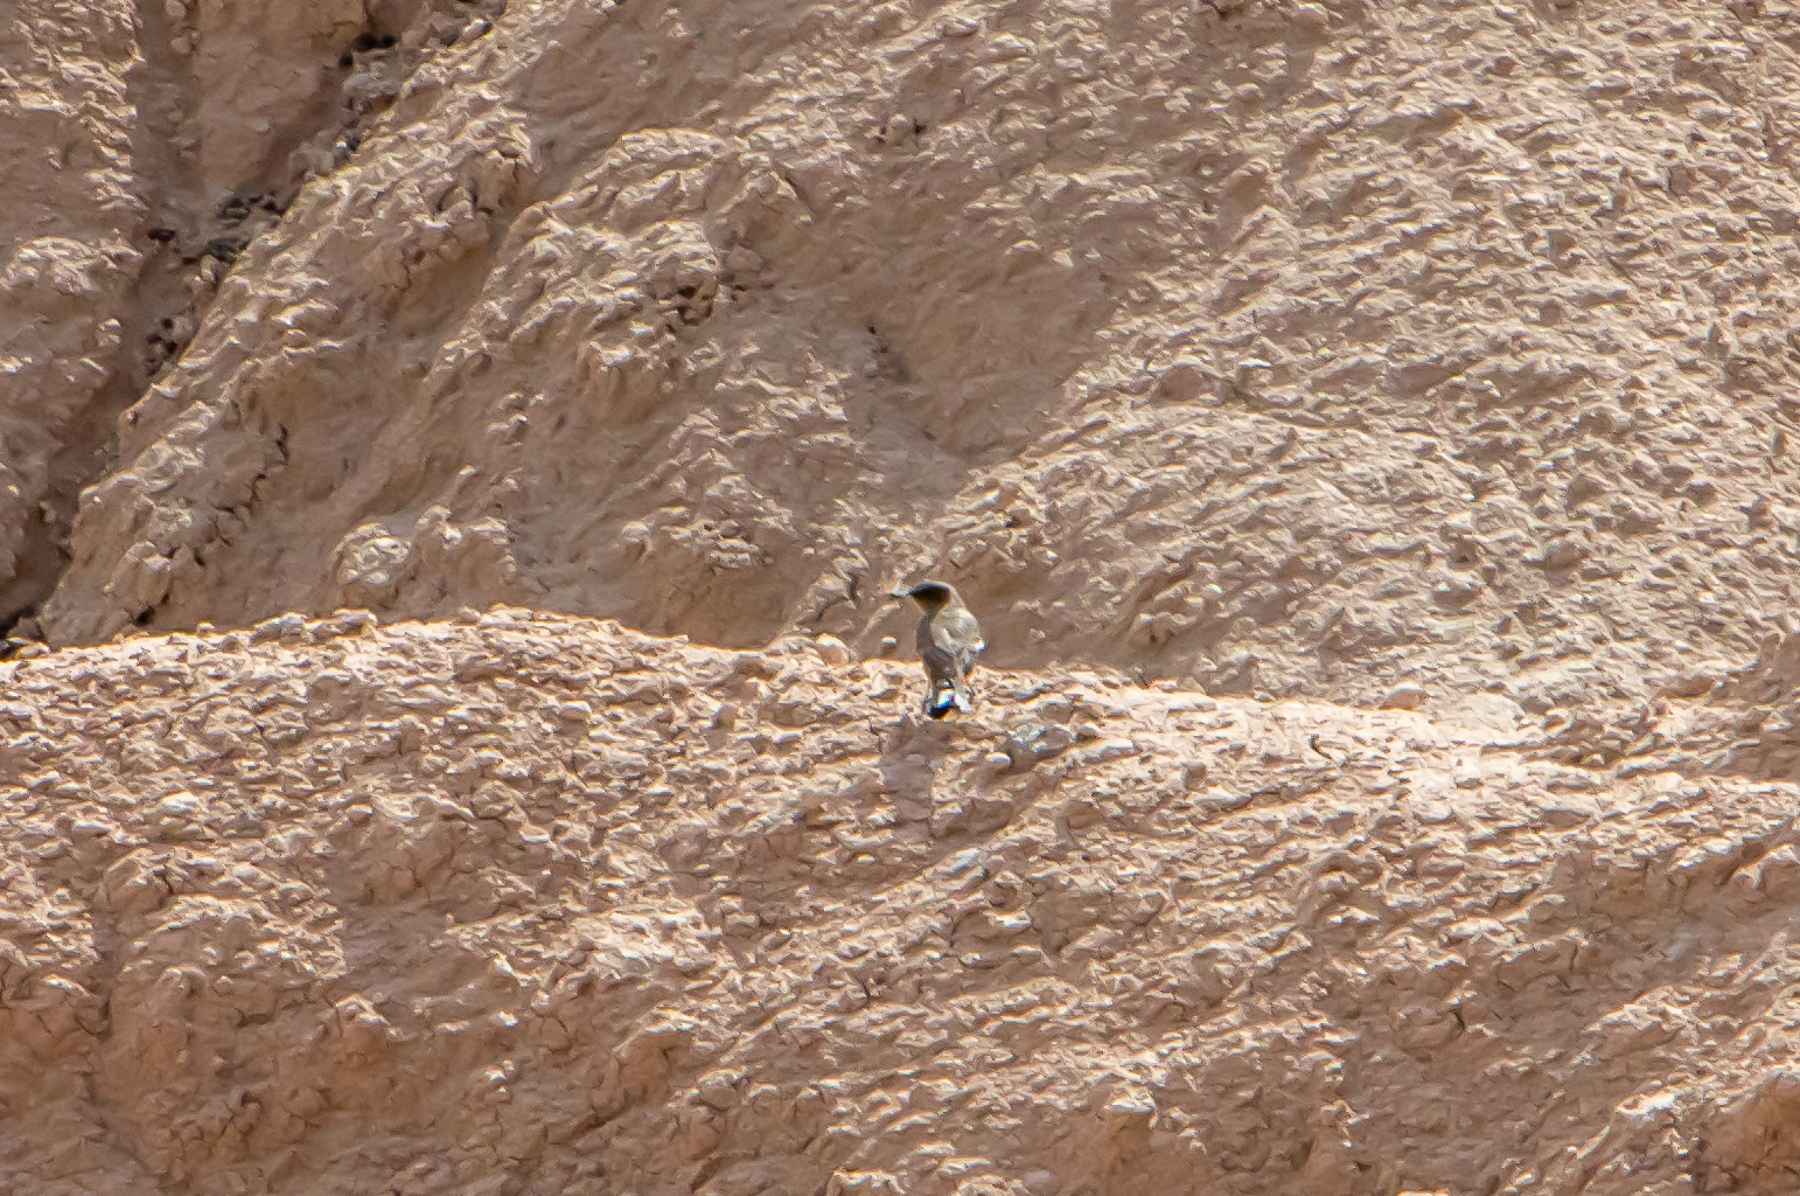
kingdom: Animalia
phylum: Chordata
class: Aves
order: Passeriformes
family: Troglodytidae
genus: Salpinctes
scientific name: Salpinctes obsoletus
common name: Rock wren
